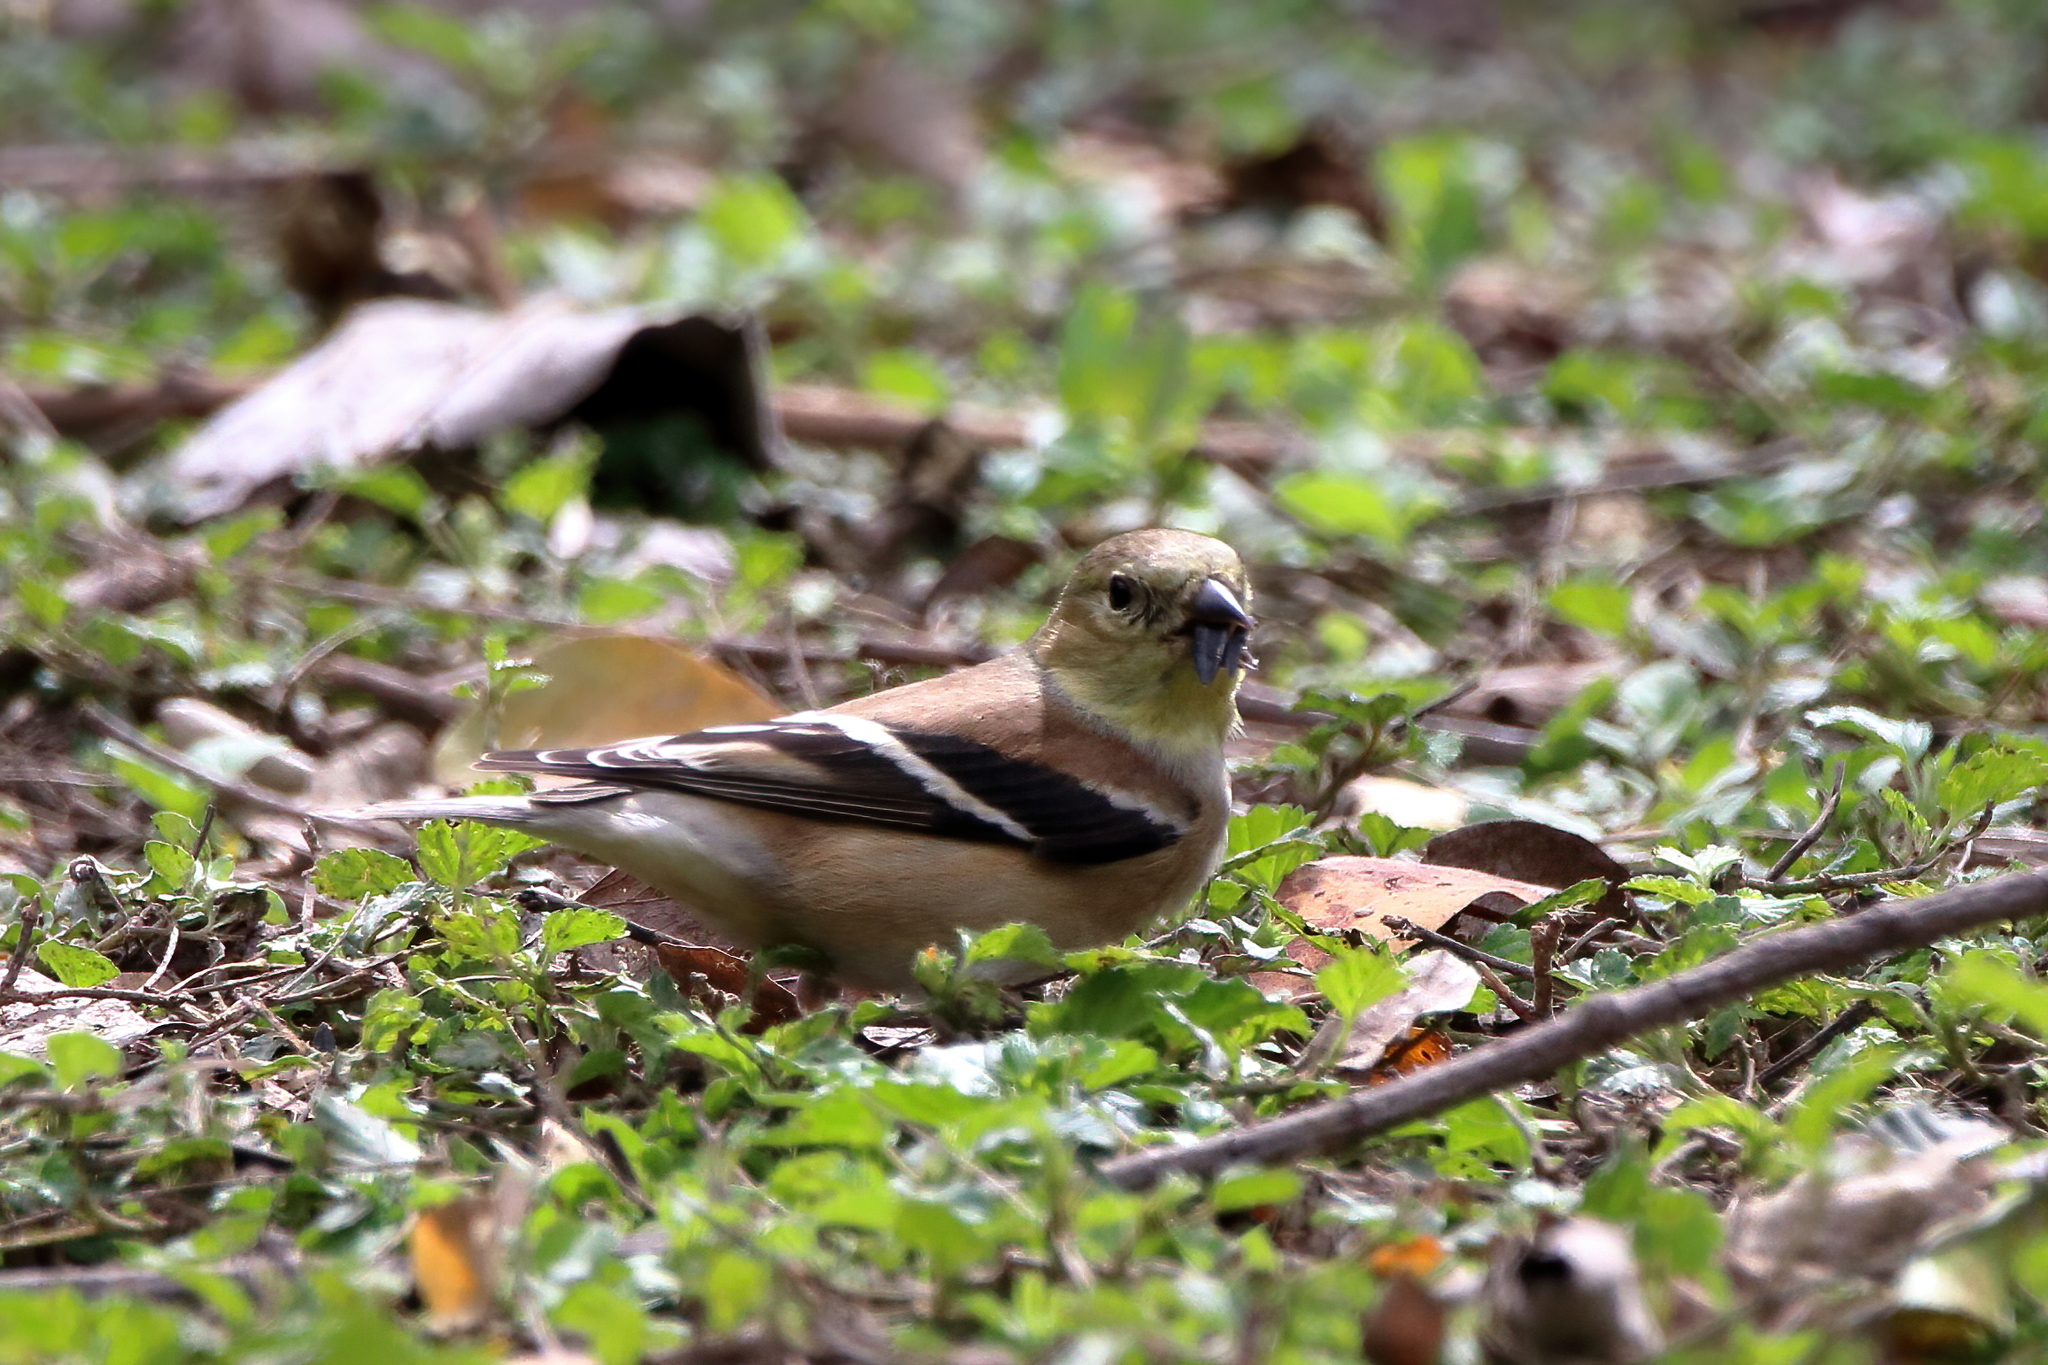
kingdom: Animalia
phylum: Chordata
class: Aves
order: Passeriformes
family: Fringillidae
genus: Spinus
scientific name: Spinus tristis
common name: American goldfinch
